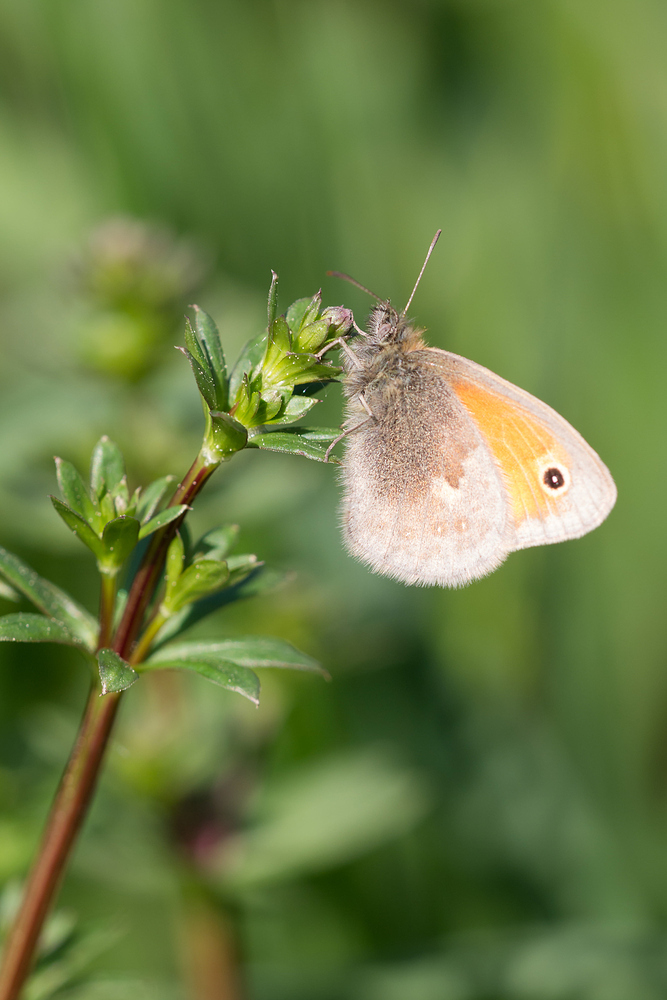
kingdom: Animalia
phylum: Arthropoda
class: Insecta
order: Lepidoptera
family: Nymphalidae
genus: Coenonympha
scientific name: Coenonympha pamphilus
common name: Small heath
